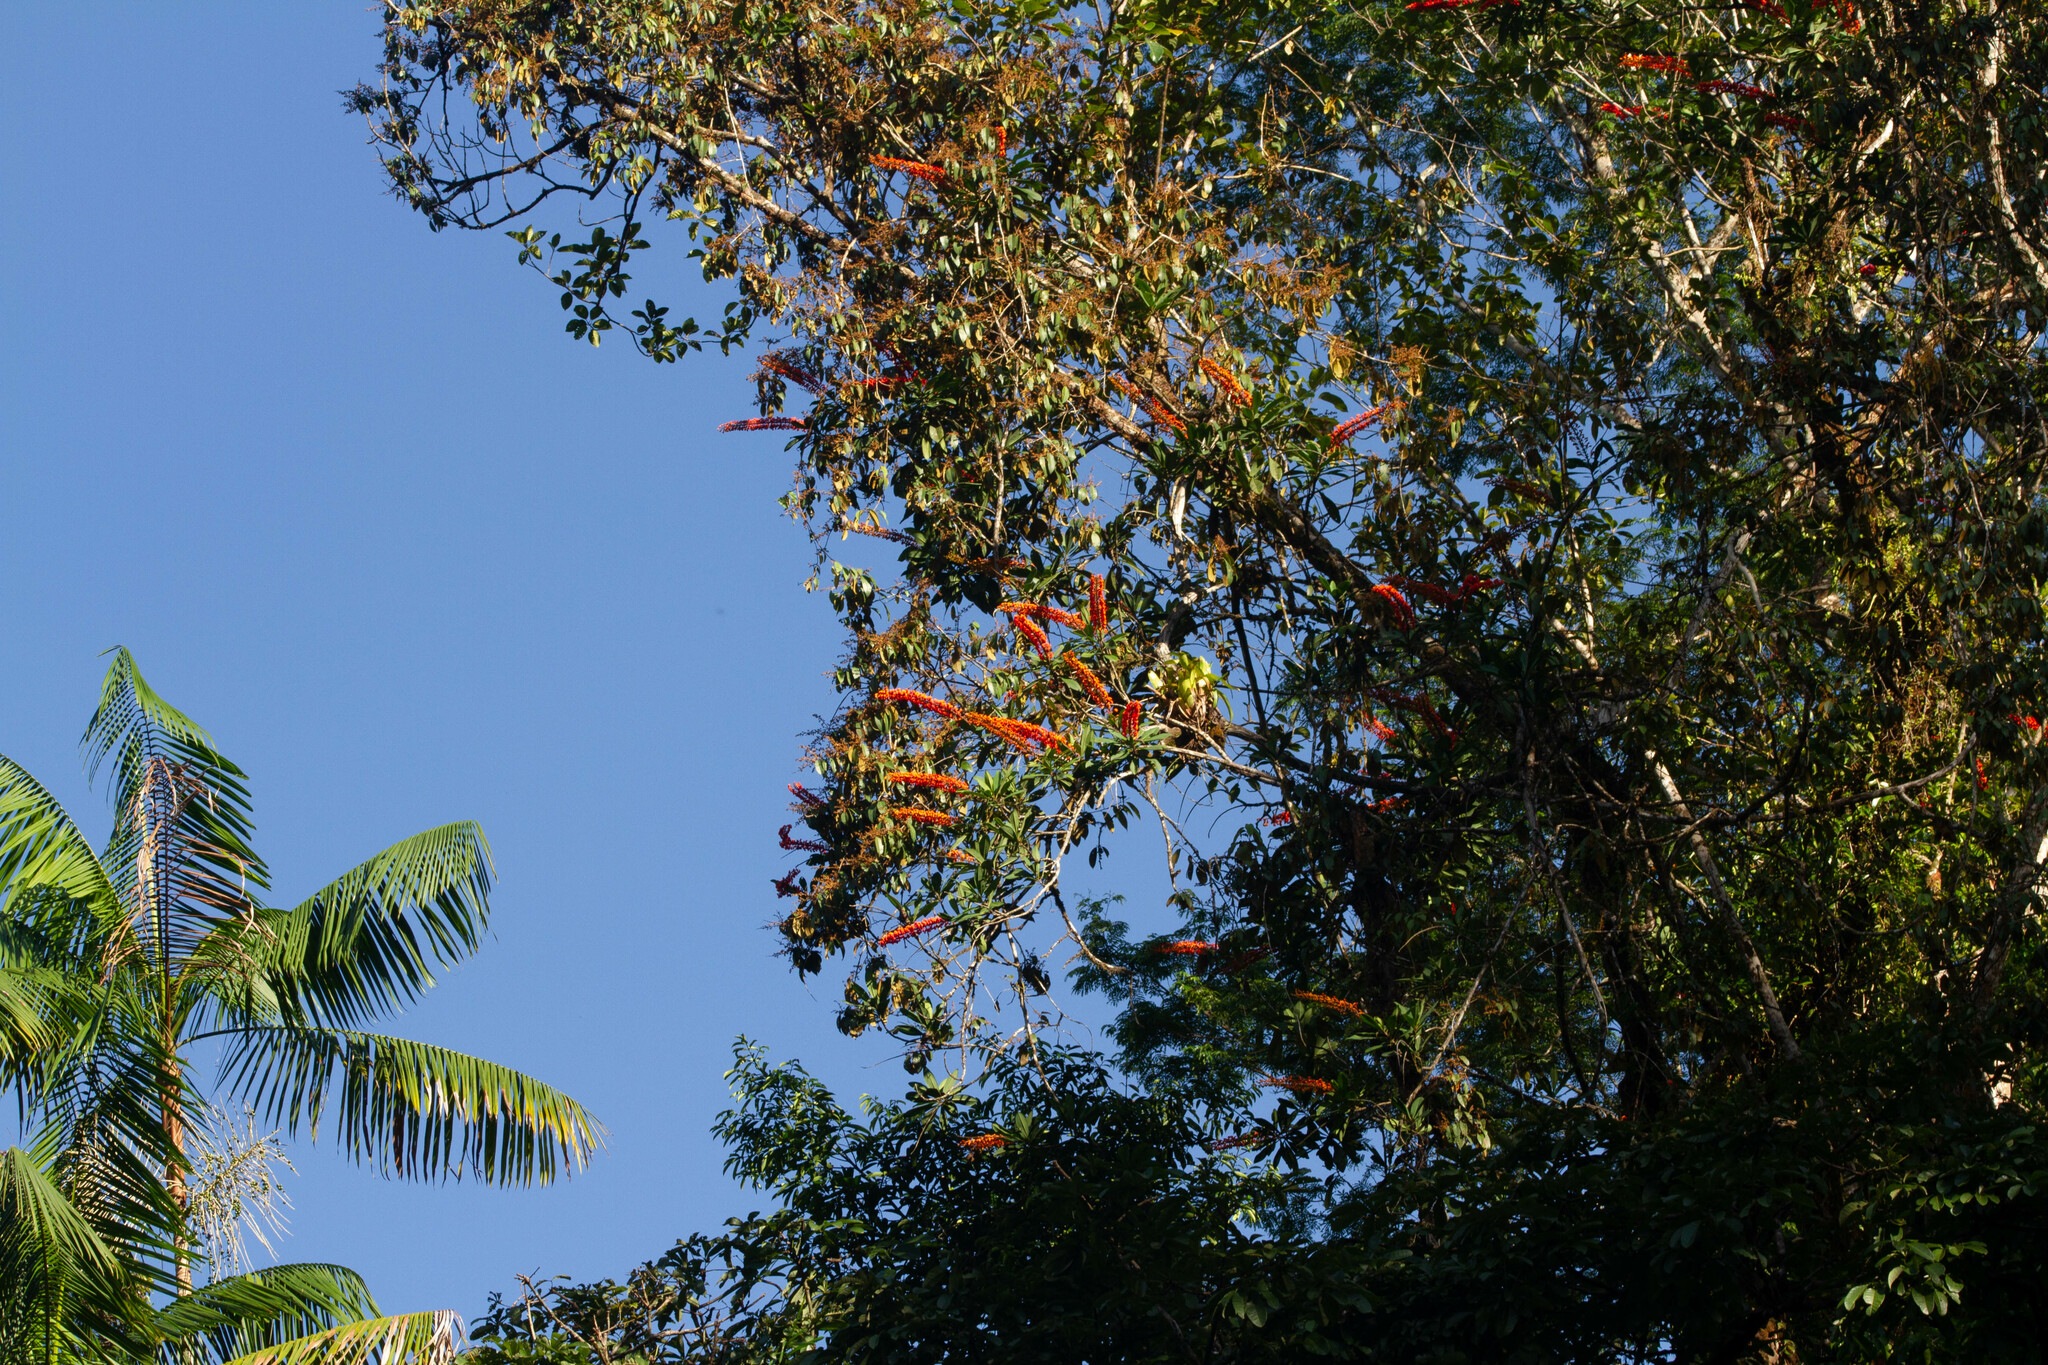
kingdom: Plantae
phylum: Tracheophyta
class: Magnoliopsida
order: Ericales
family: Marcgraviaceae
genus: Norantea
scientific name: Norantea guianensis
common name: Red hot poker vine
